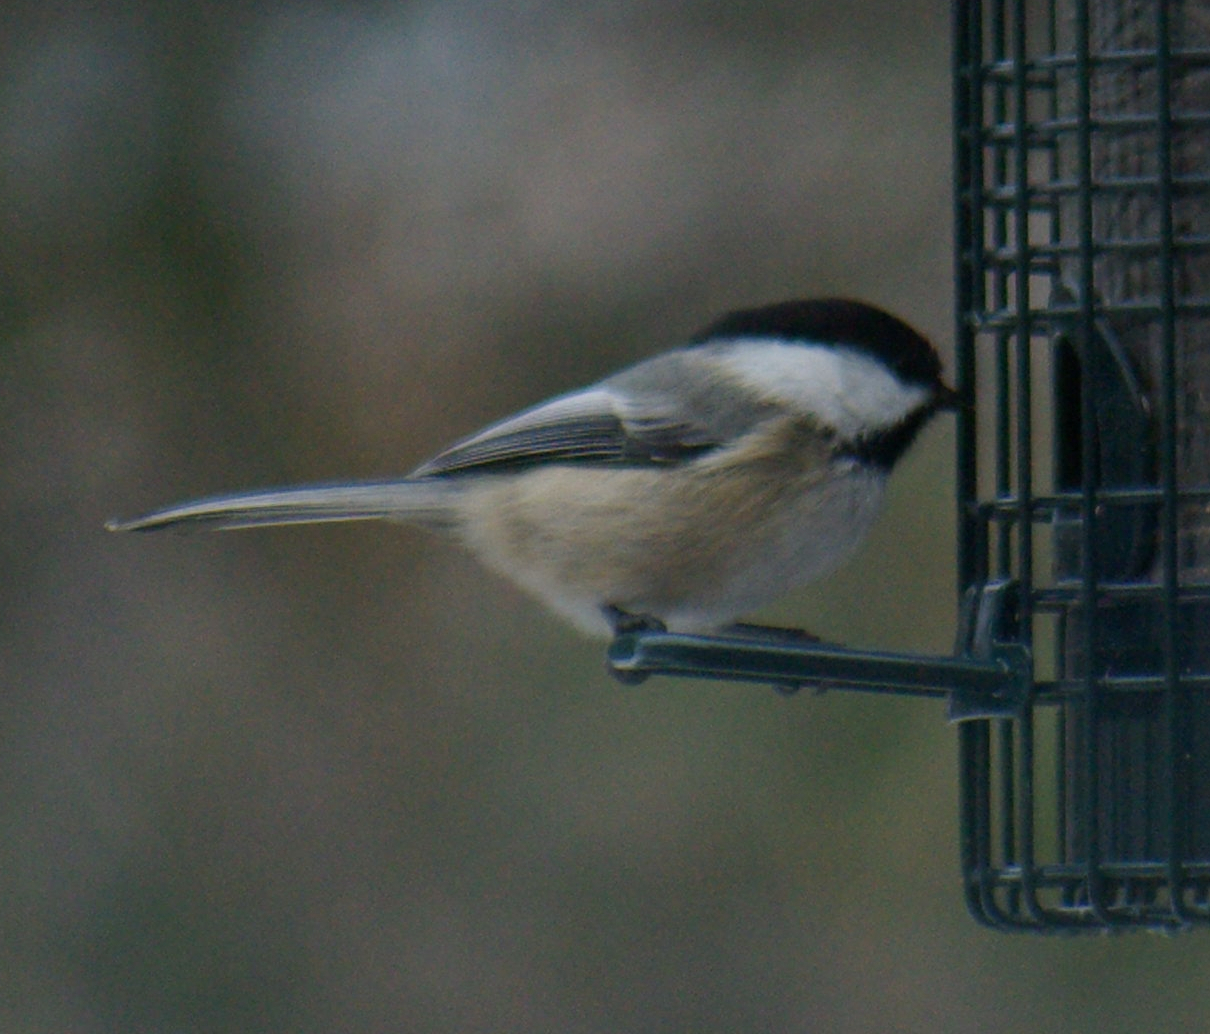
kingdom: Animalia
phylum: Chordata
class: Aves
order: Passeriformes
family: Paridae
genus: Poecile
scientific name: Poecile atricapillus
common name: Black-capped chickadee
